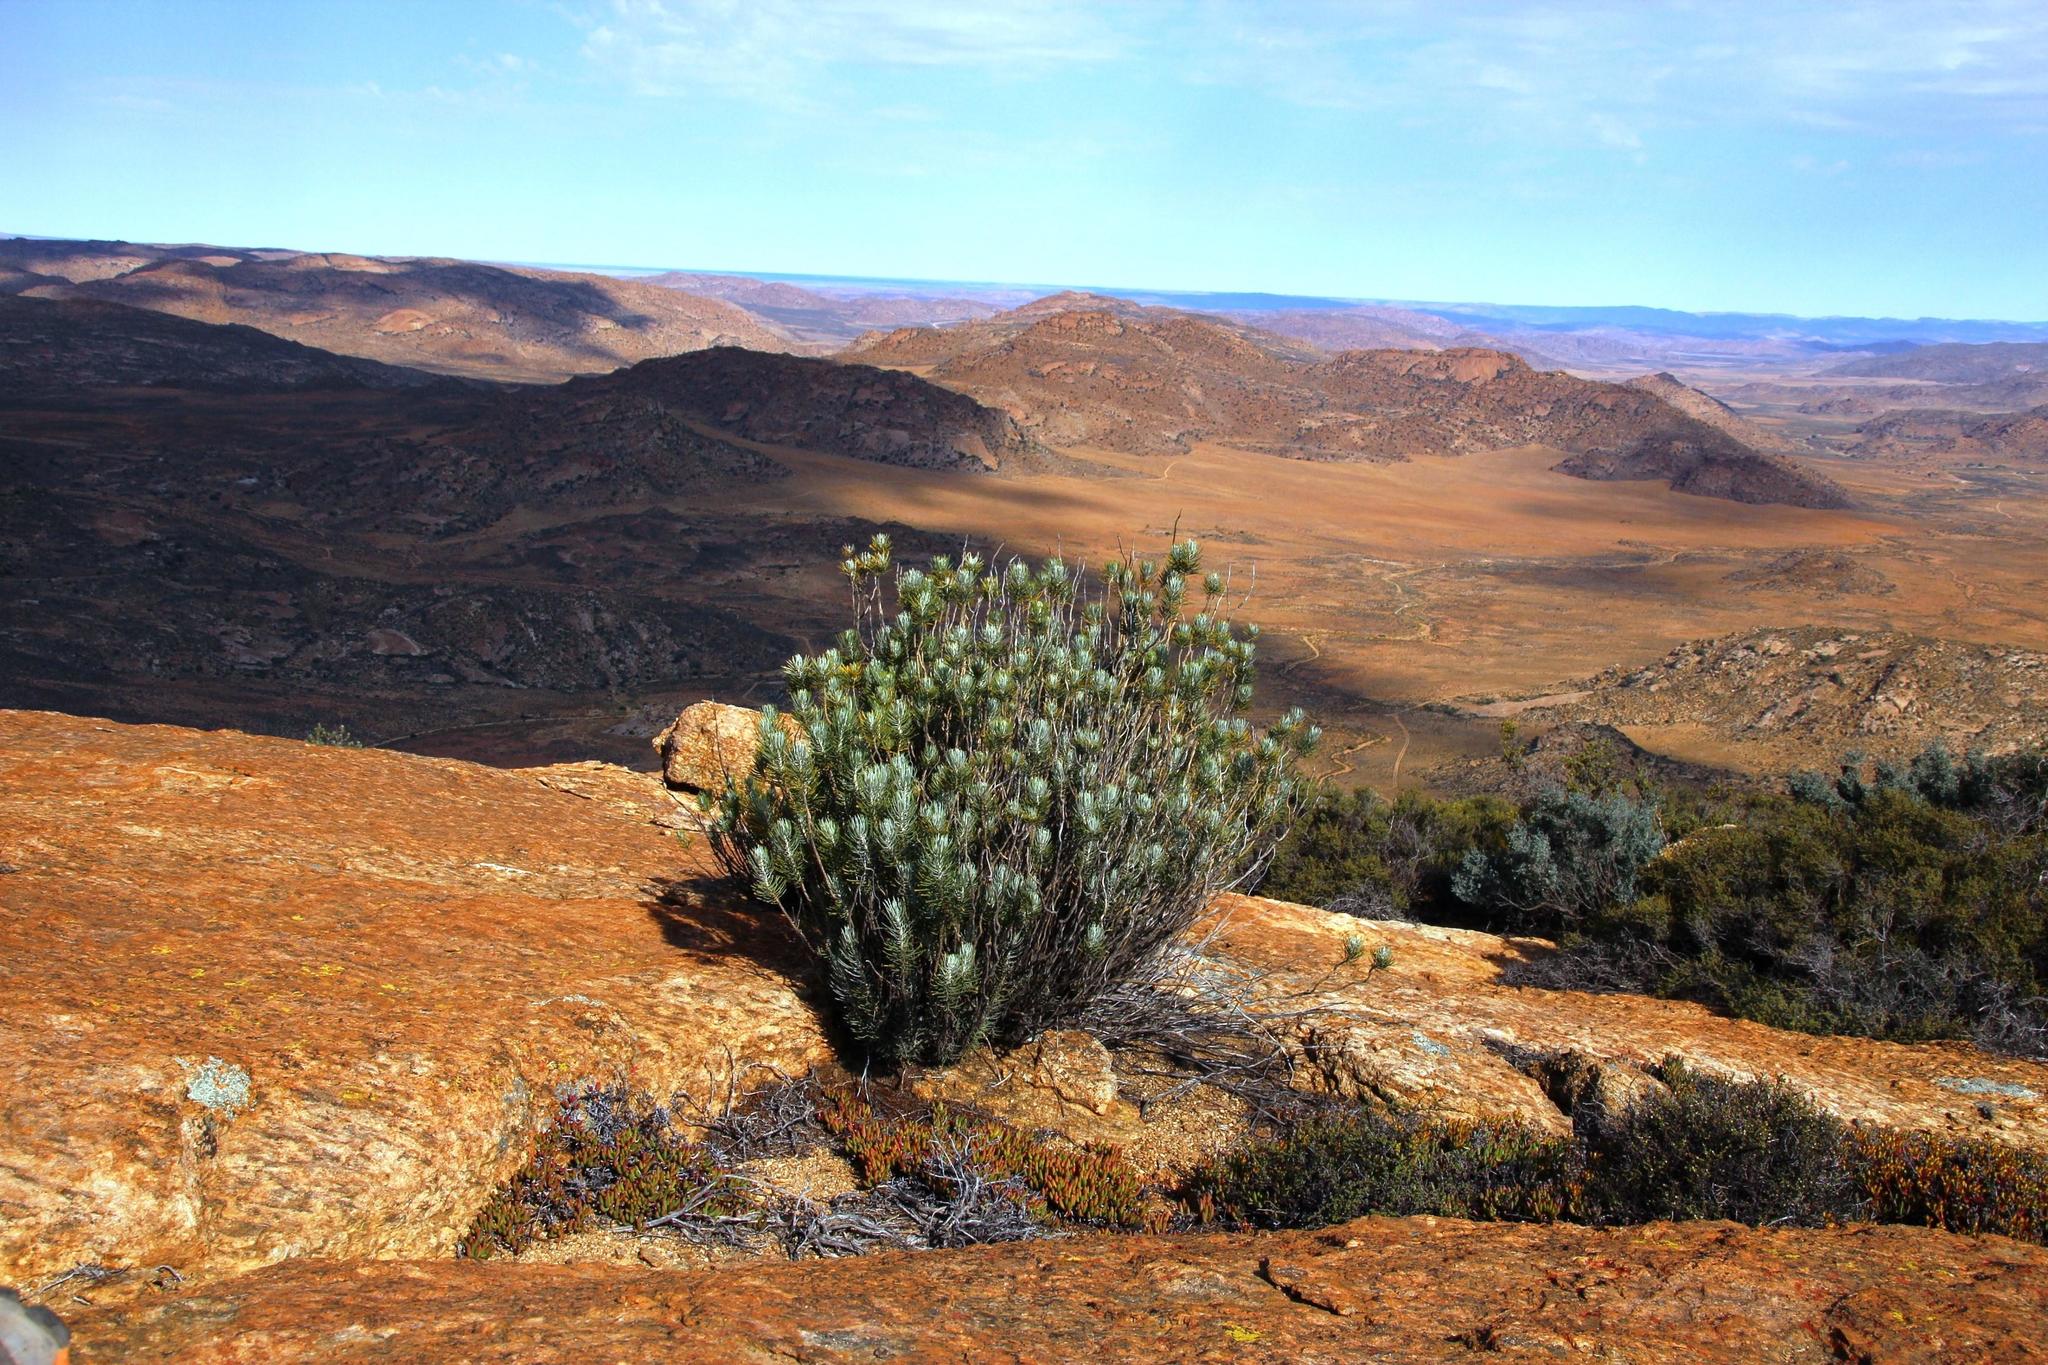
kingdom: Plantae
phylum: Tracheophyta
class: Magnoliopsida
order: Asterales
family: Asteraceae
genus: Euryops
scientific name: Euryops tenuissimus
